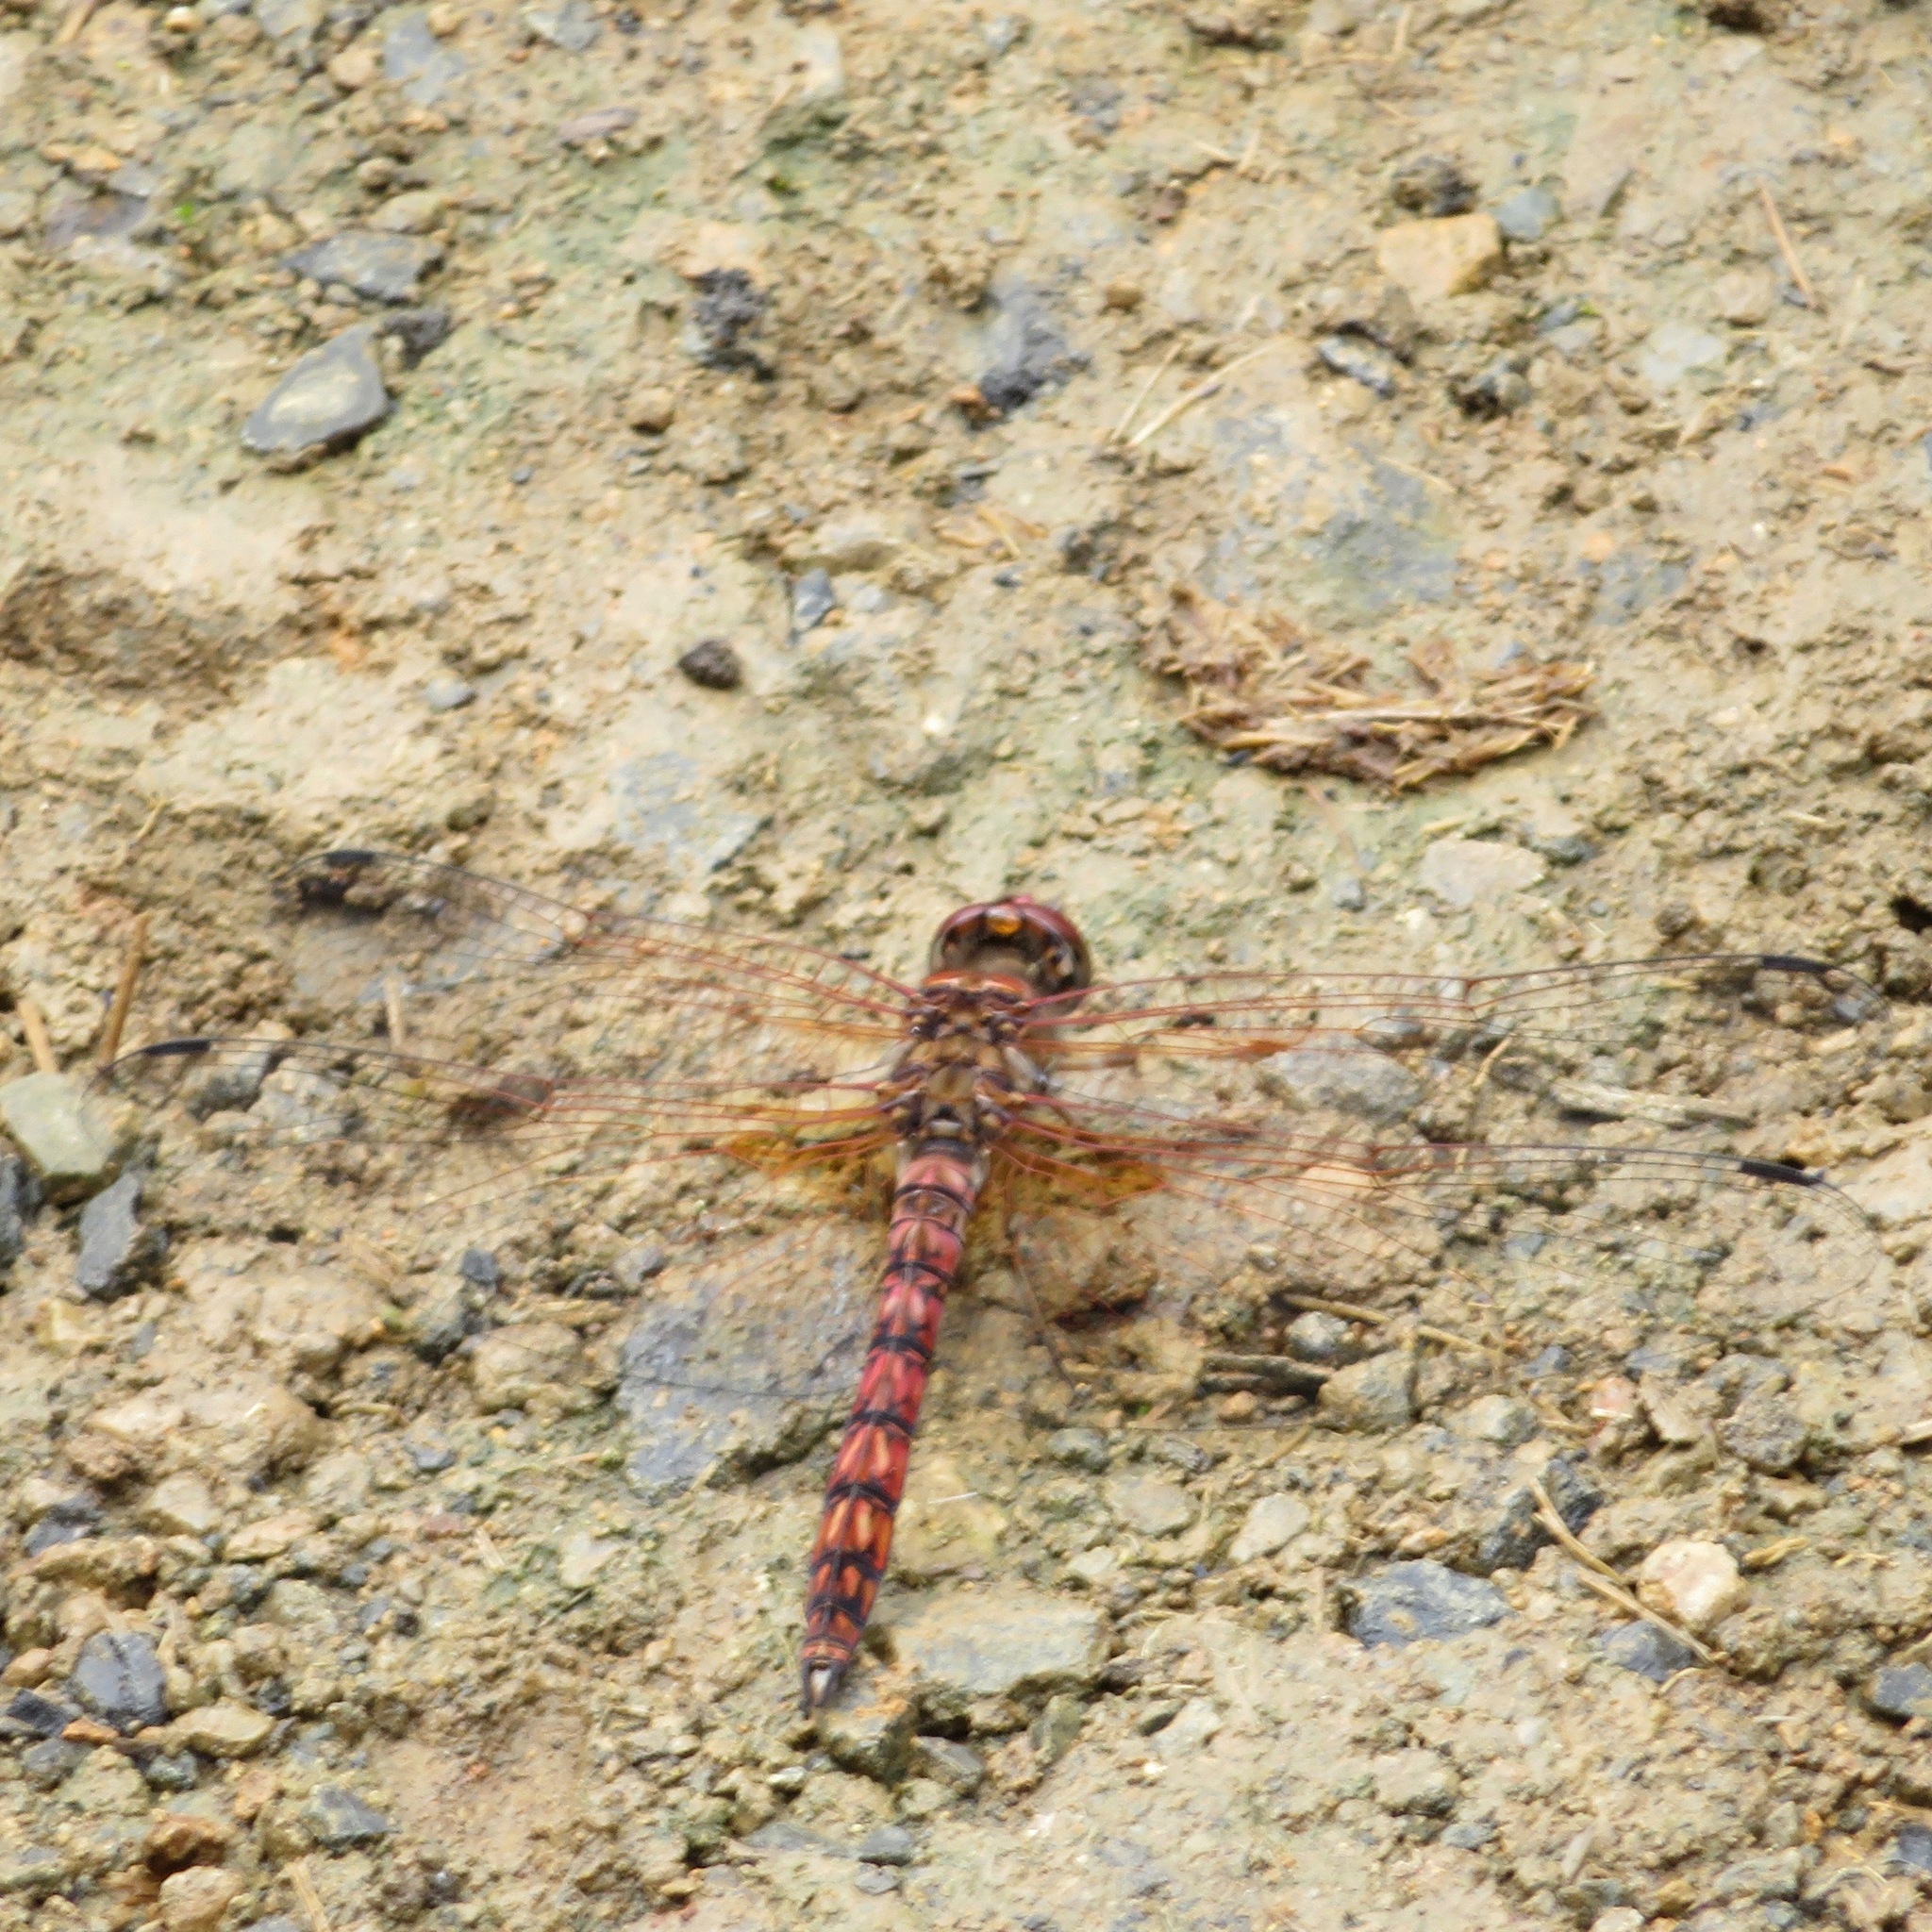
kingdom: Animalia
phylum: Arthropoda
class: Insecta
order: Odonata
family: Libellulidae
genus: Paltothemis
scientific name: Paltothemis lineatipes
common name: Red rock skimmer
